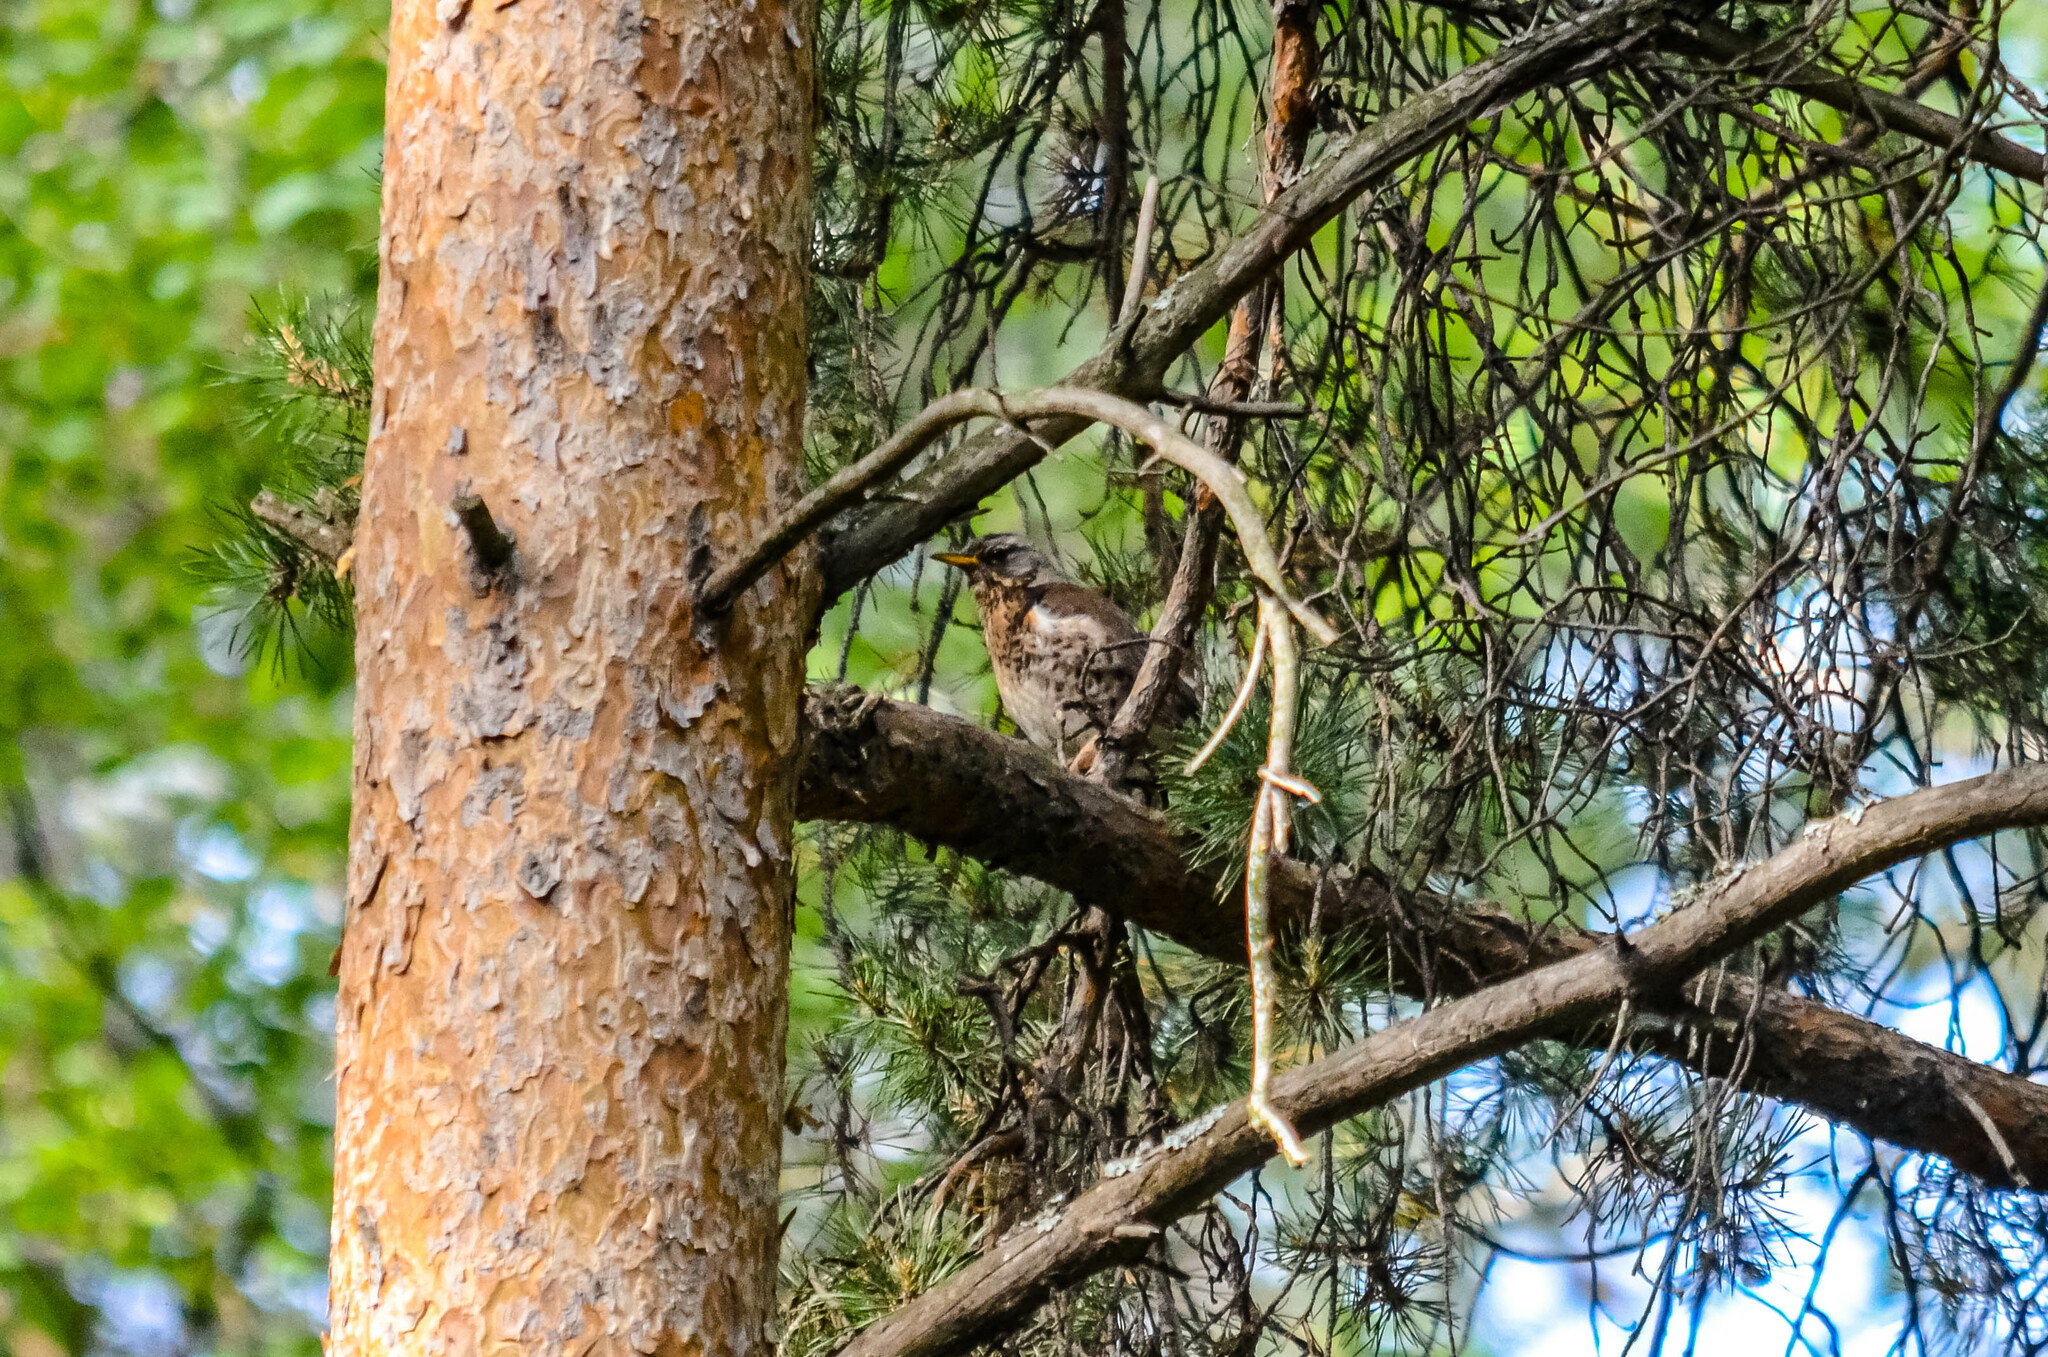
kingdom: Animalia
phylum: Chordata
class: Aves
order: Passeriformes
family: Turdidae
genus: Turdus
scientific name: Turdus pilaris
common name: Fieldfare
